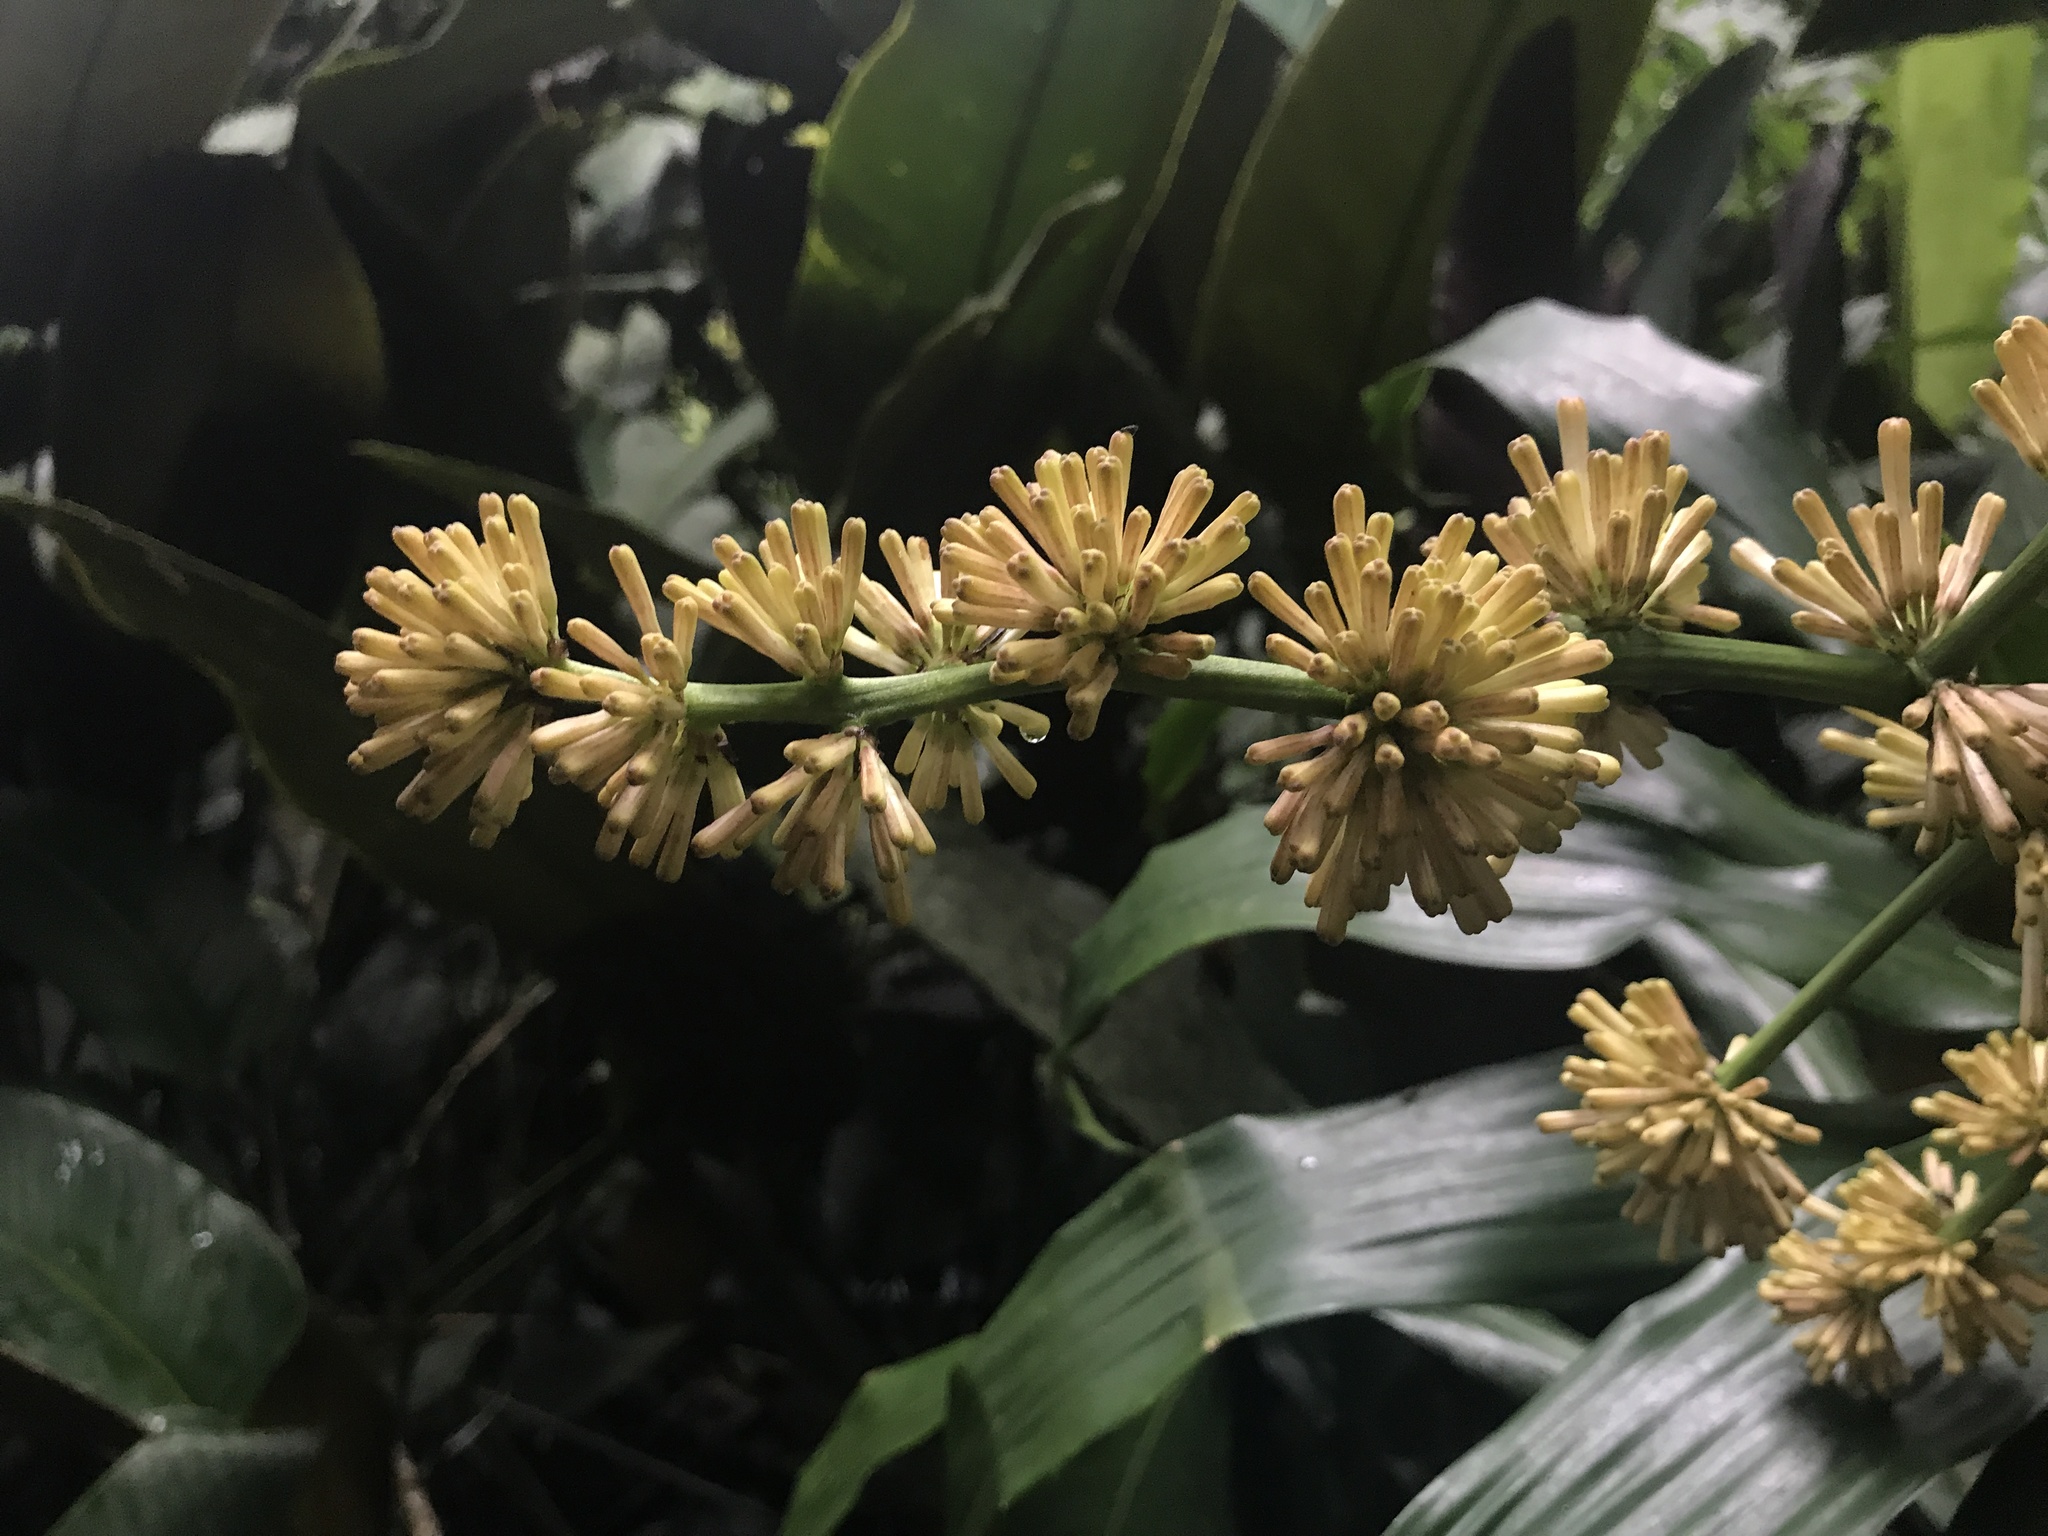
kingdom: Plantae
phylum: Tracheophyta
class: Liliopsida
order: Asparagales
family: Asparagaceae
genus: Dracaena
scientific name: Dracaena fragrans
